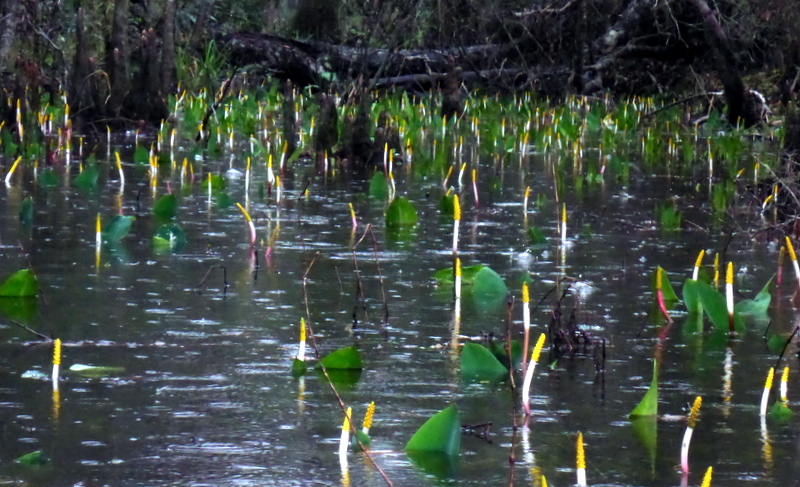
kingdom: Plantae
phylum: Tracheophyta
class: Liliopsida
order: Alismatales
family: Araceae
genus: Orontium
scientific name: Orontium aquaticum
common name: Golden-club
